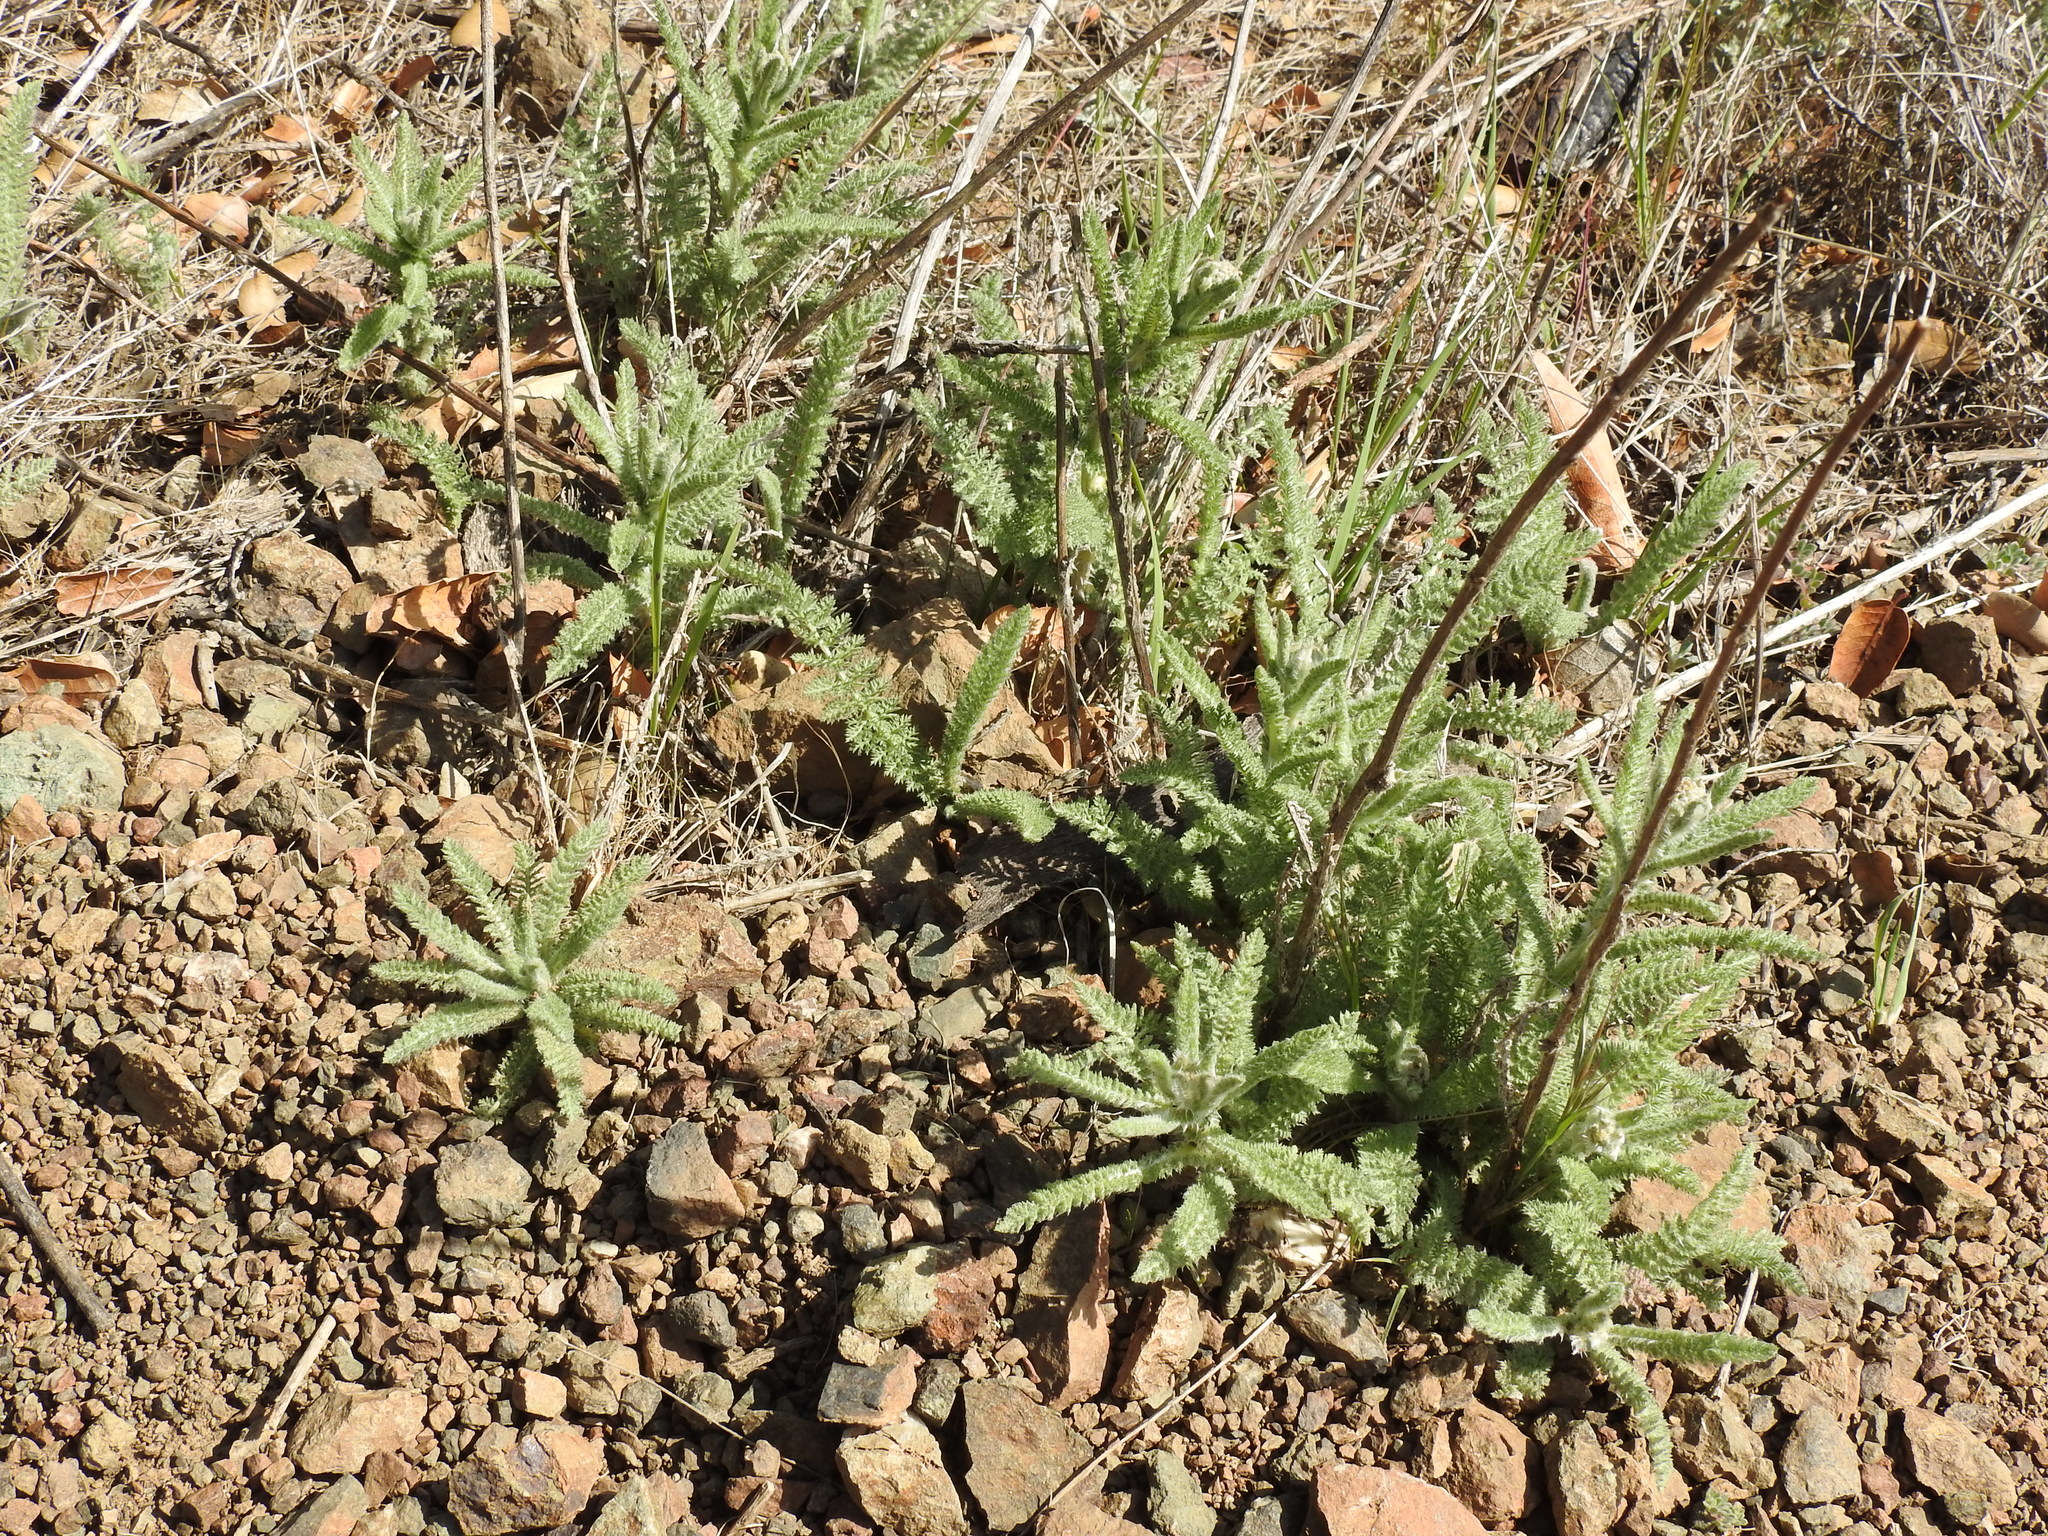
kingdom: Plantae
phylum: Tracheophyta
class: Magnoliopsida
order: Asterales
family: Asteraceae
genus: Achillea
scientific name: Achillea millefolium
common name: Yarrow
